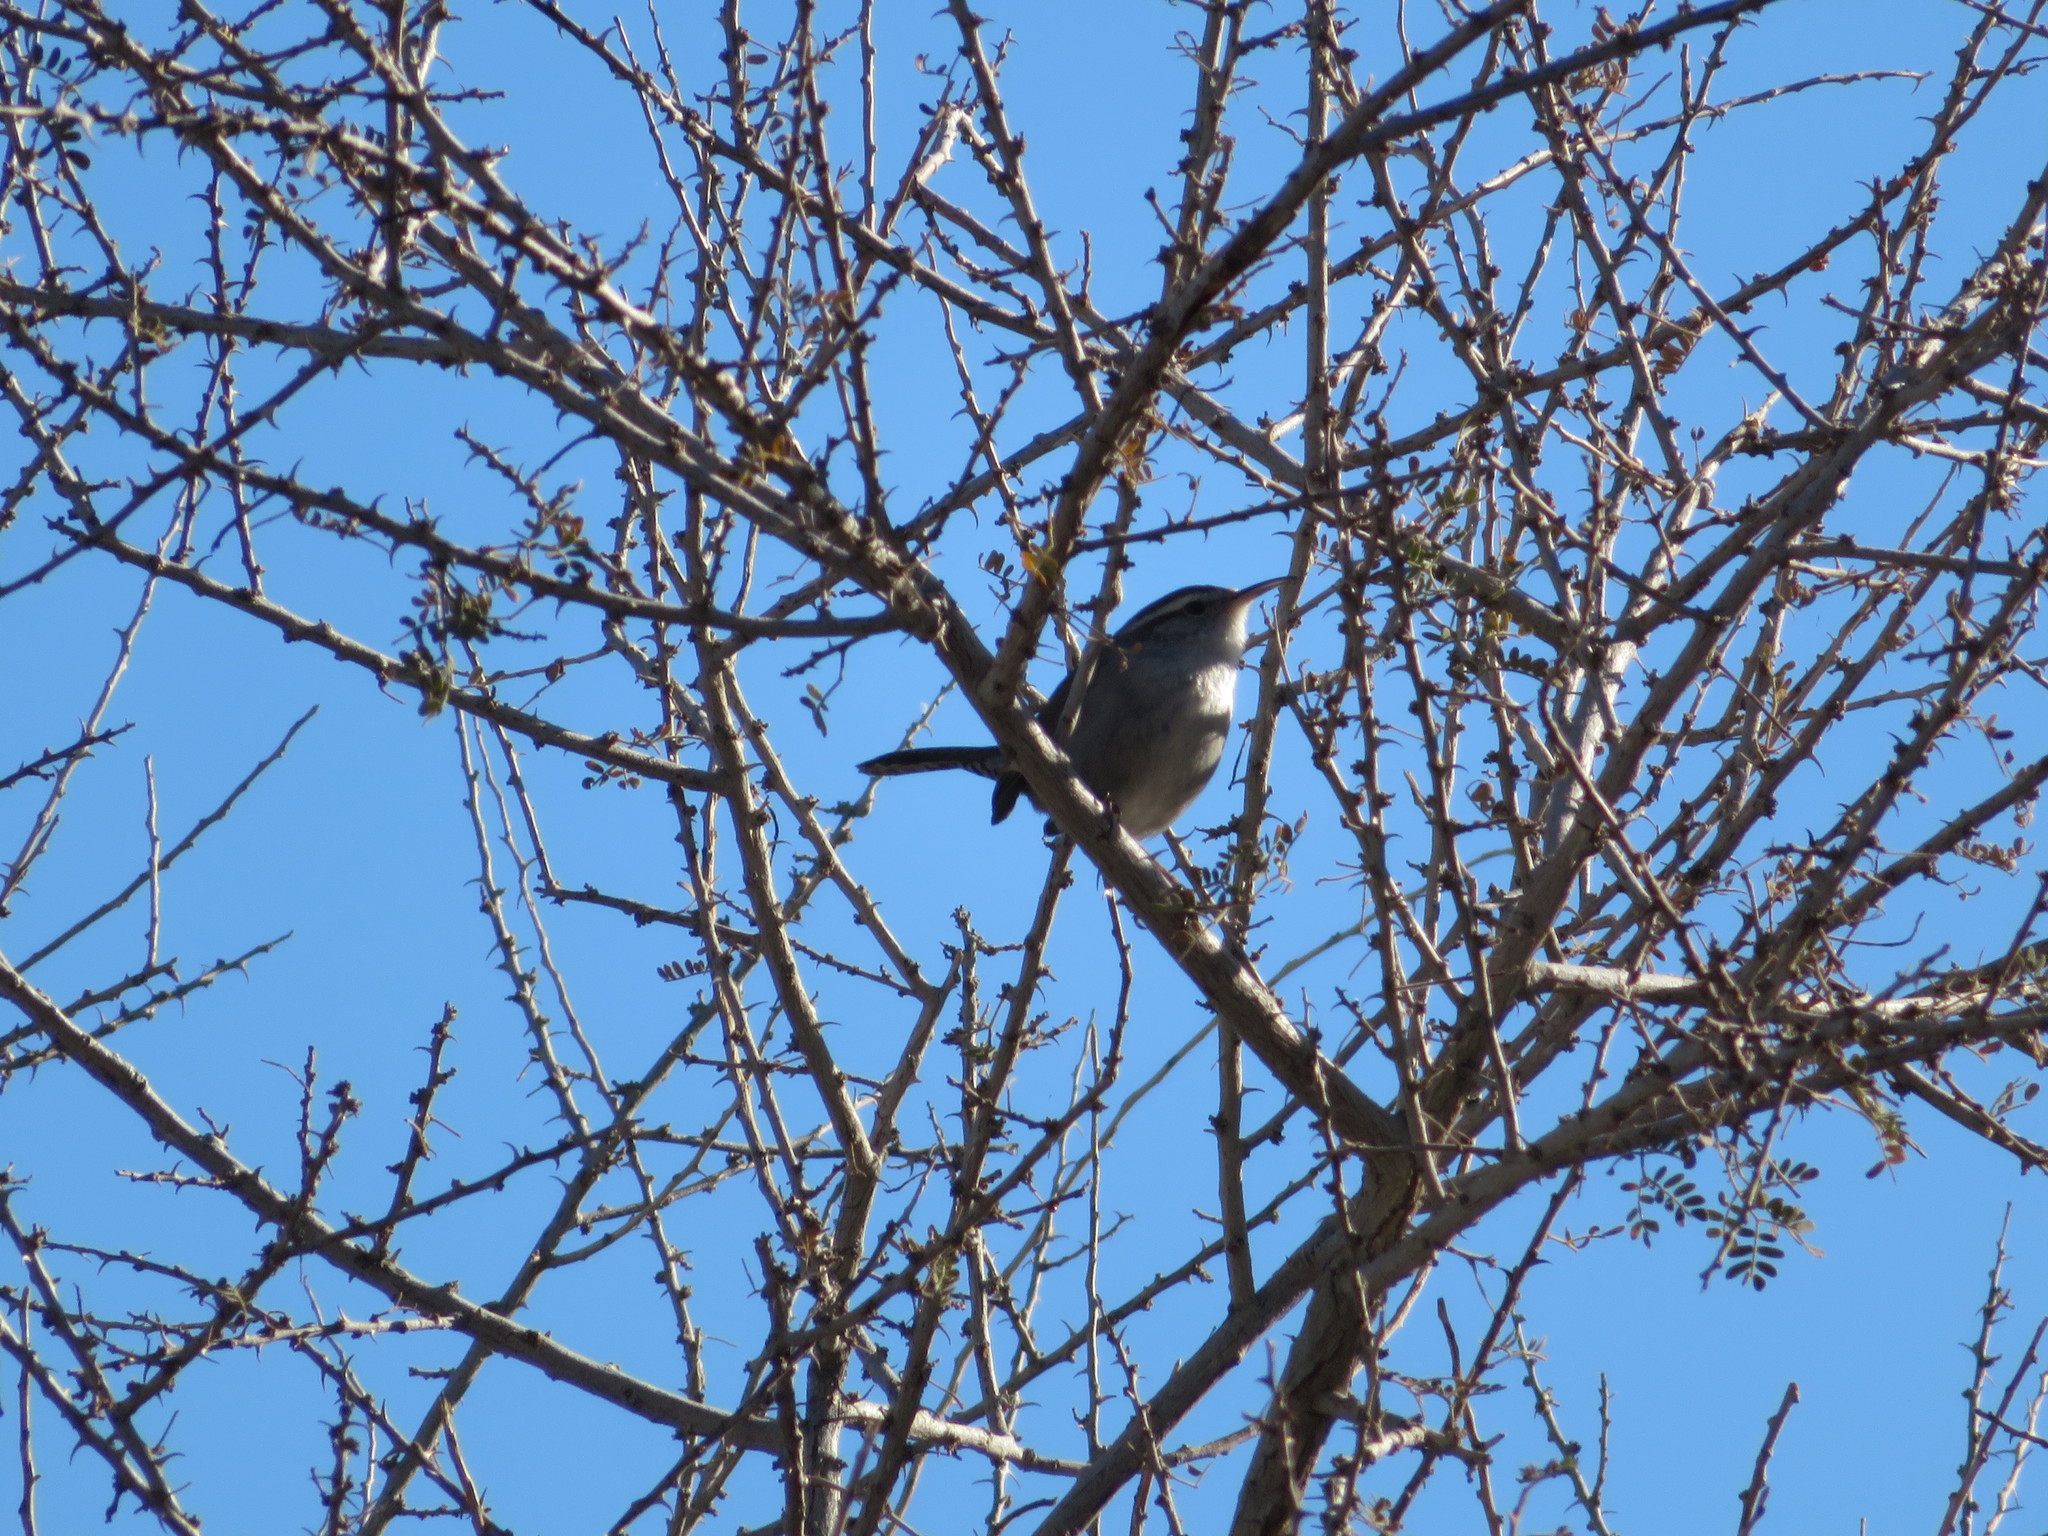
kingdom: Animalia
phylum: Chordata
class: Aves
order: Passeriformes
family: Troglodytidae
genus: Thryomanes
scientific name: Thryomanes bewickii
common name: Bewick's wren
